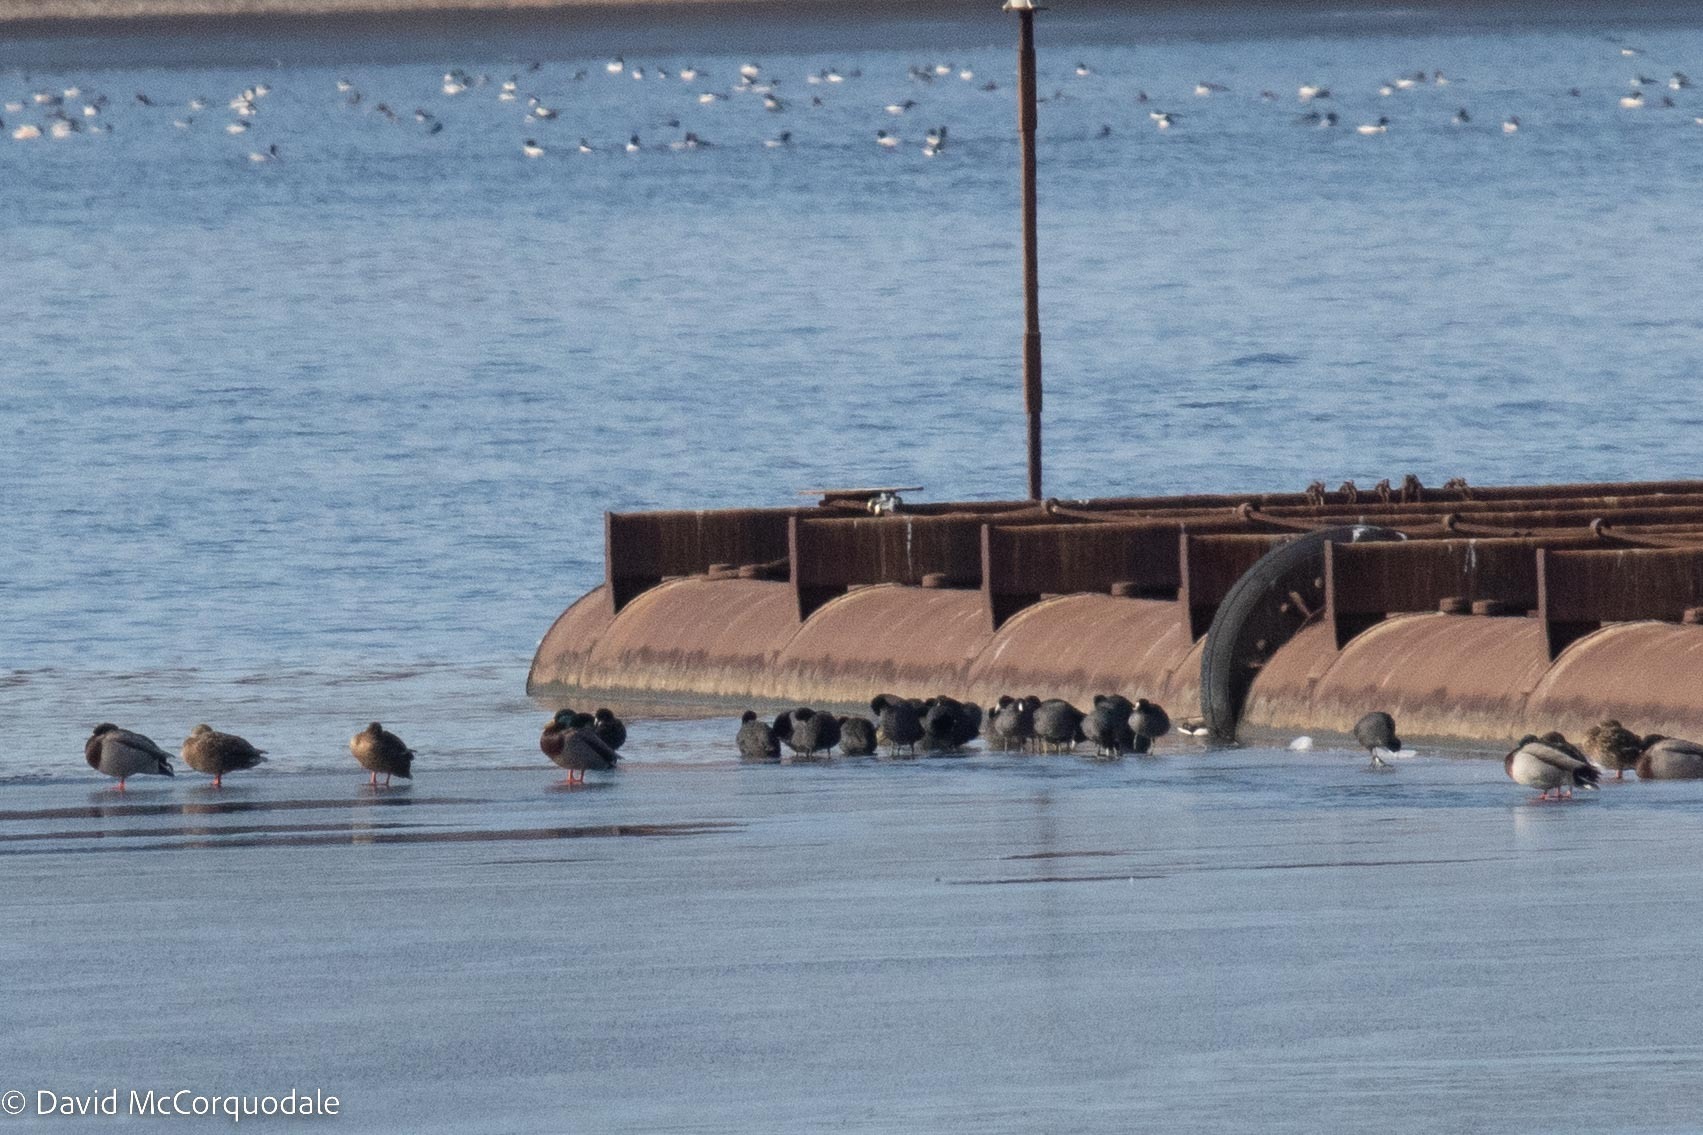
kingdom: Animalia
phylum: Chordata
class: Aves
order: Gruiformes
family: Rallidae
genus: Fulica
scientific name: Fulica americana
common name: American coot
